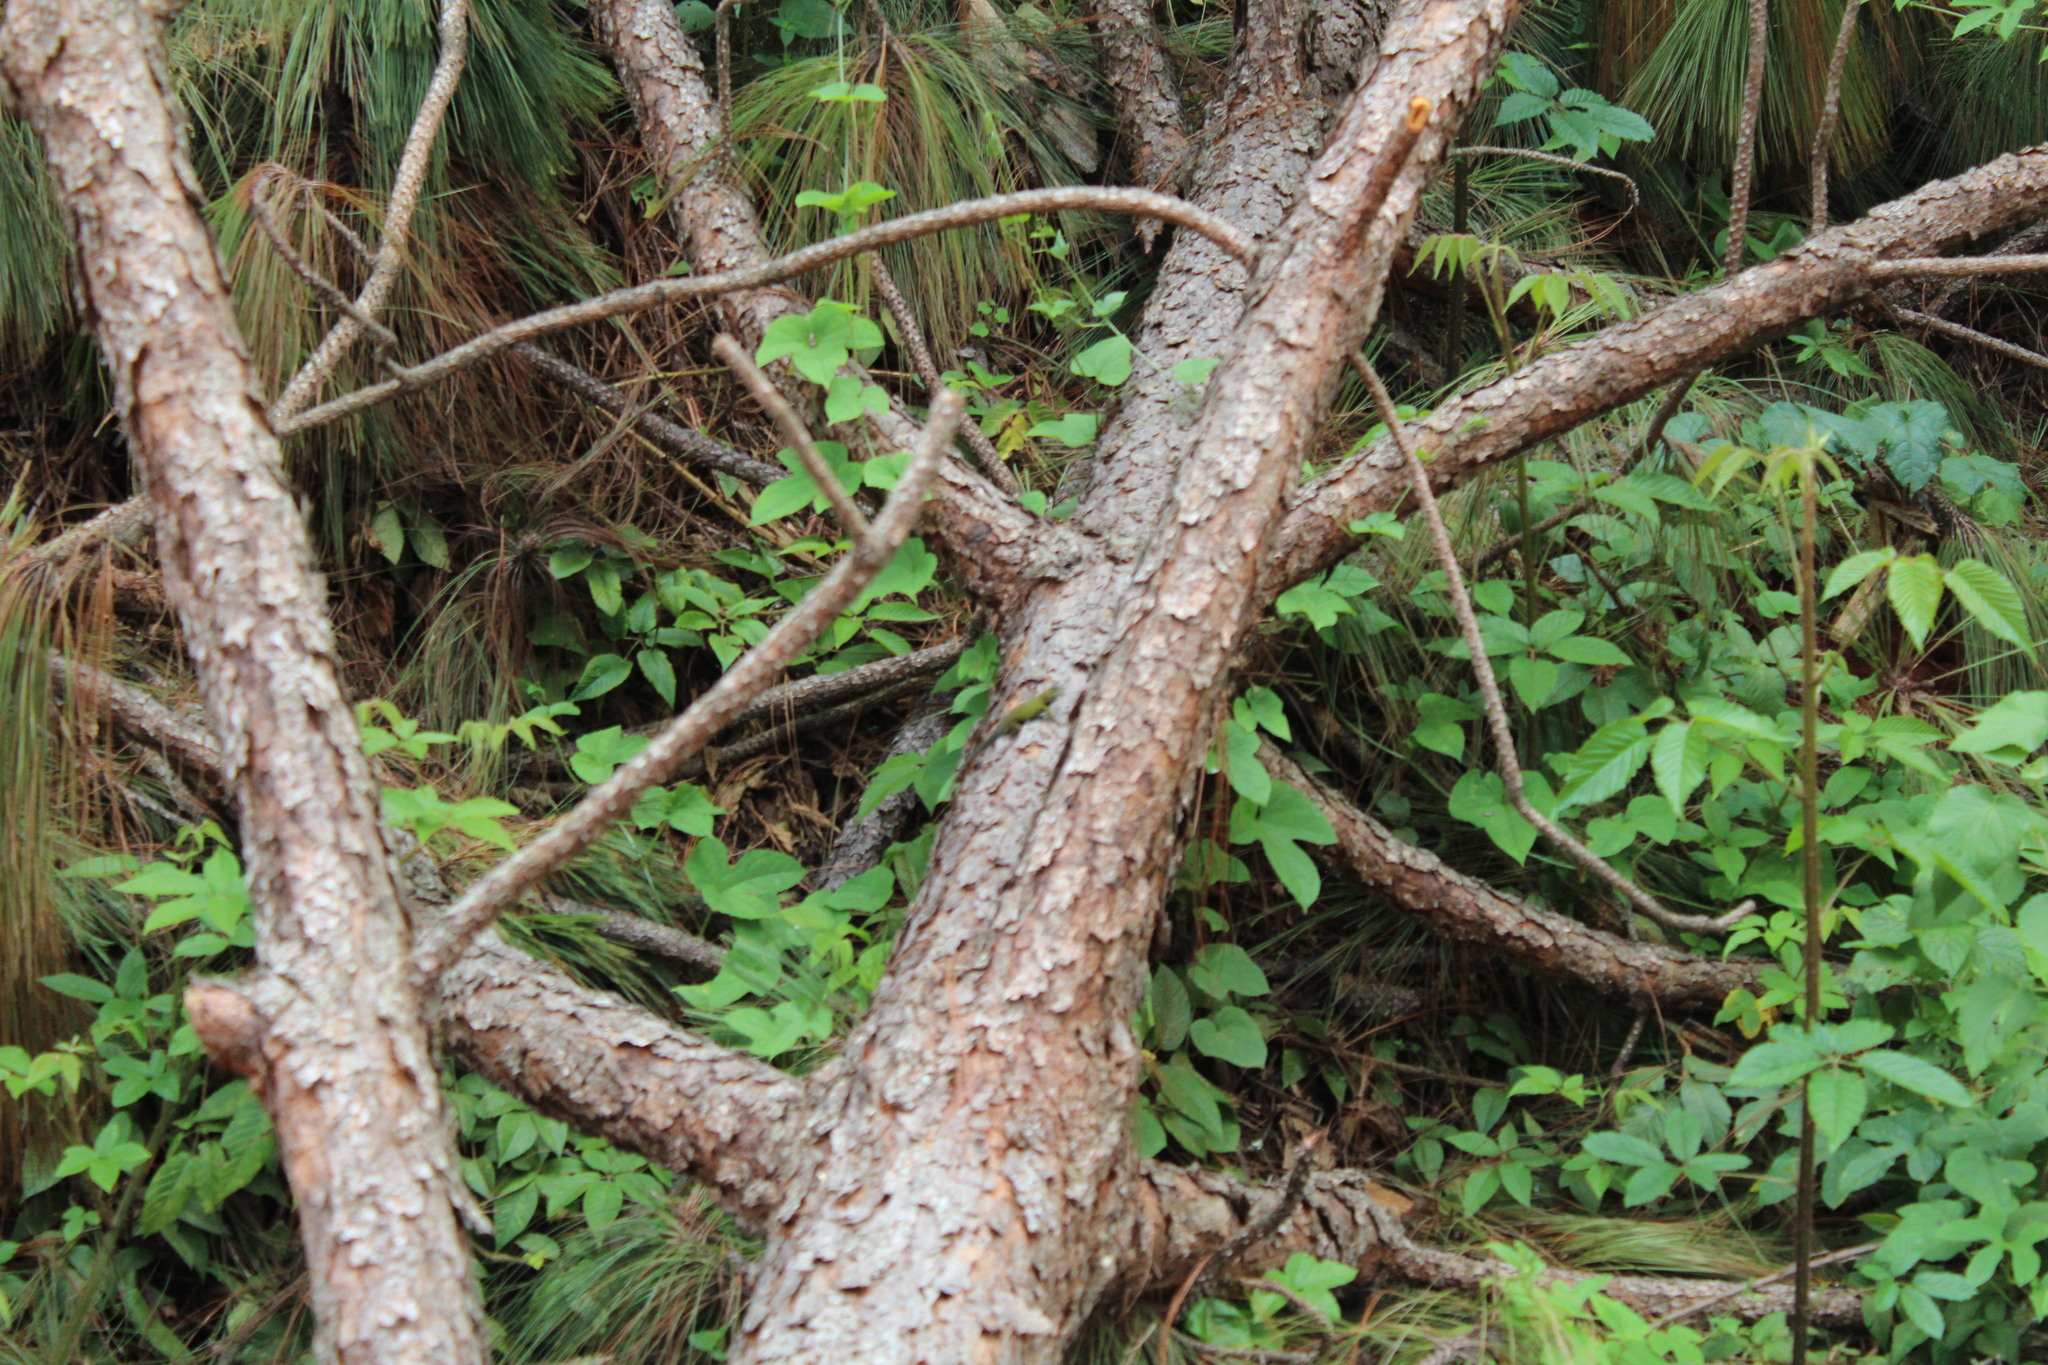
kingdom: Animalia
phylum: Chordata
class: Squamata
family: Phrynosomatidae
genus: Sceloporus
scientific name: Sceloporus formosus
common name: Mexican emerald spiny lizard
